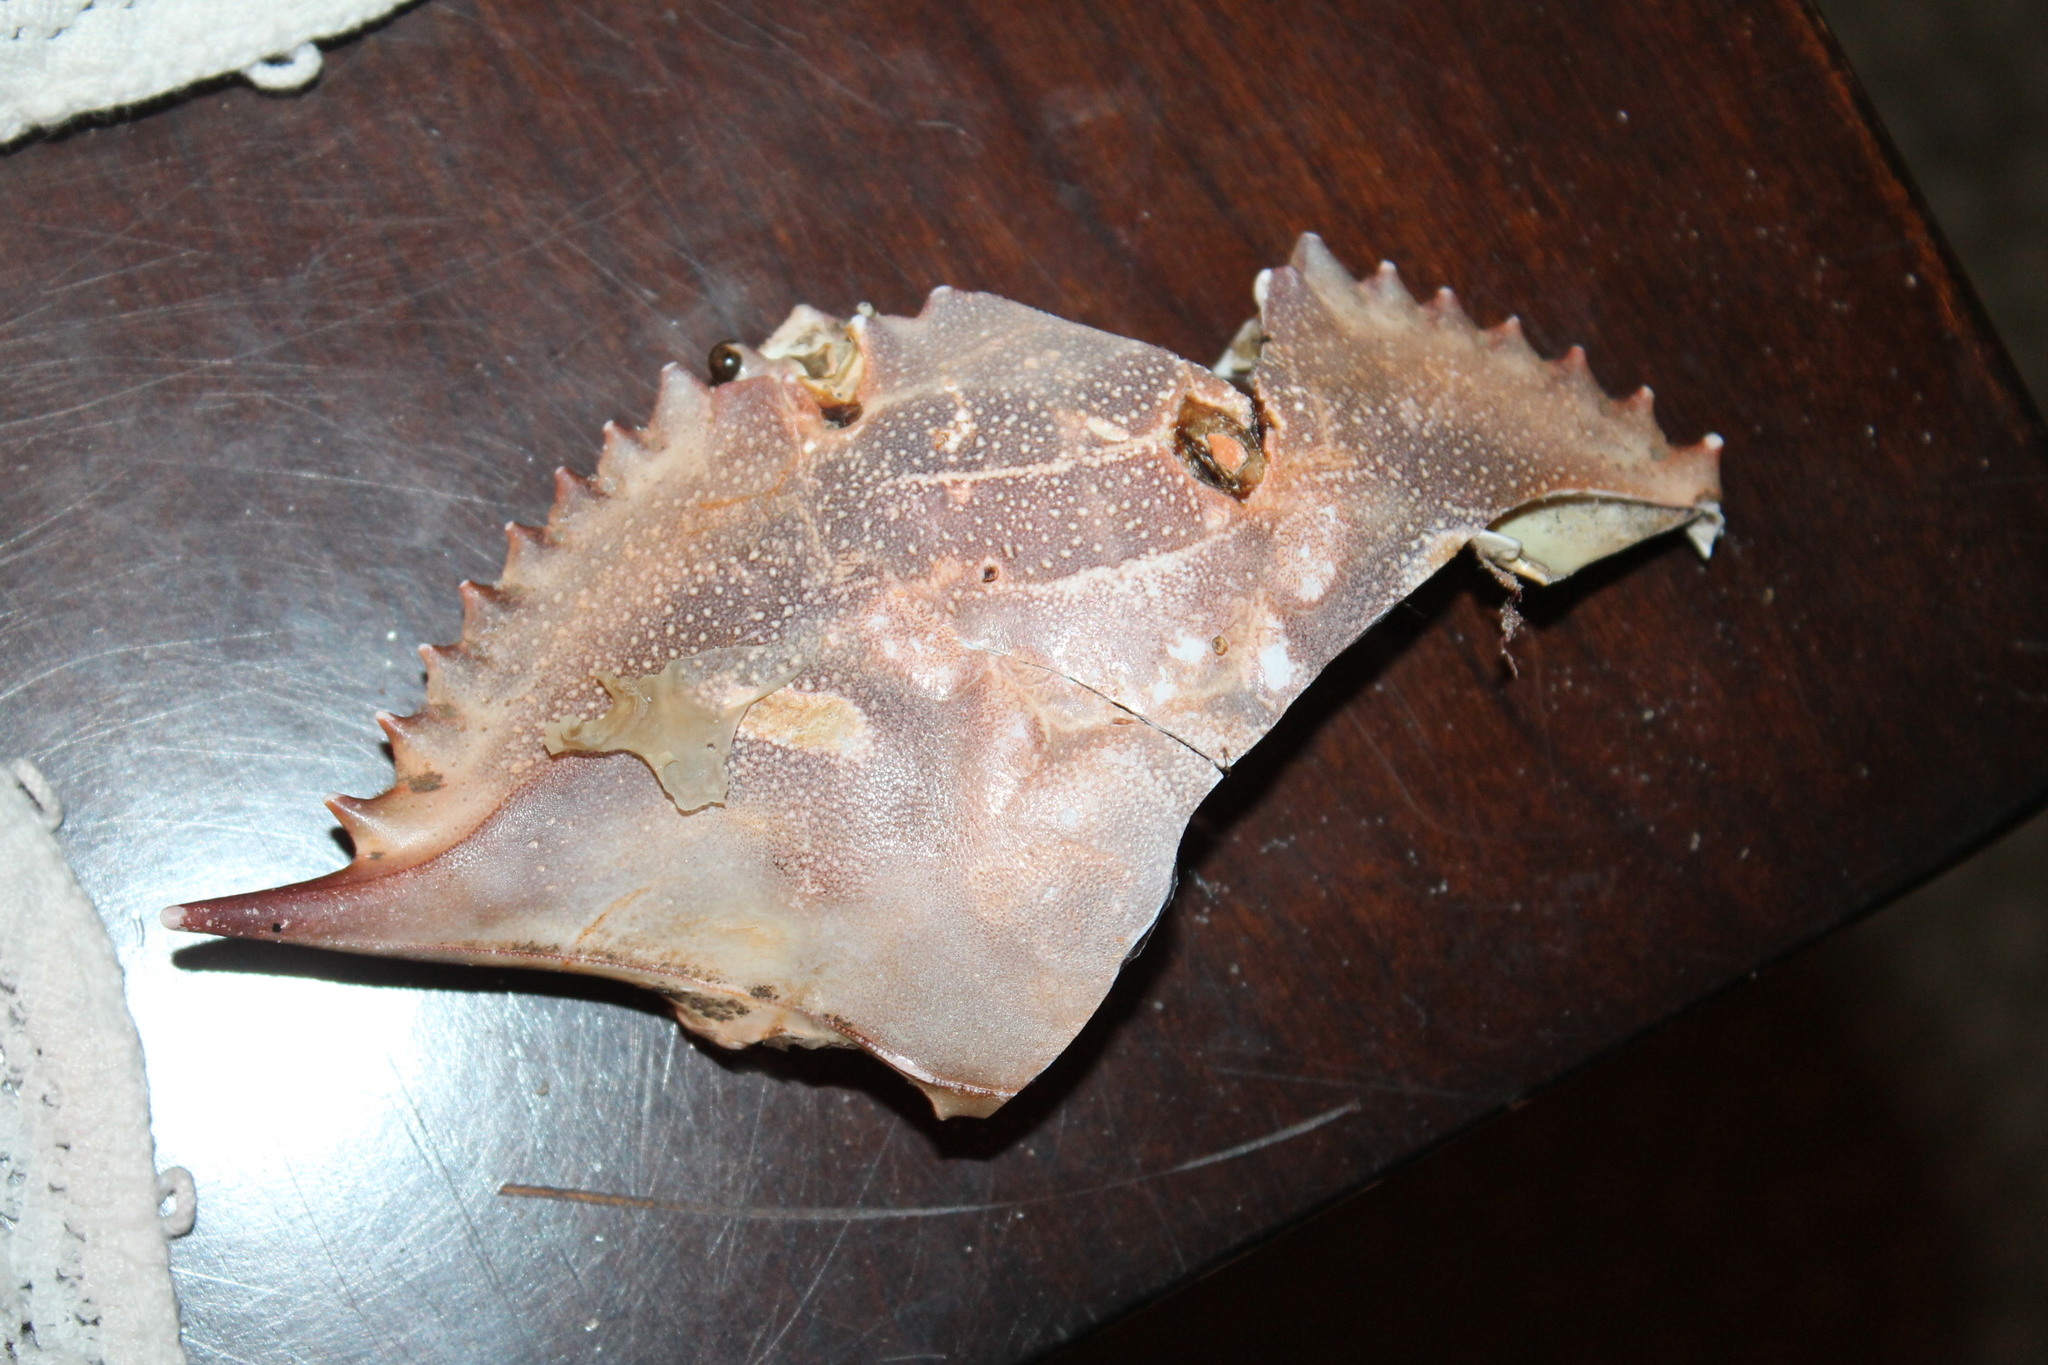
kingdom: Animalia
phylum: Arthropoda
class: Malacostraca
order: Decapoda
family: Portunidae
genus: Callinectes
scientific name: Callinectes sapidus
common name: Blue crab
